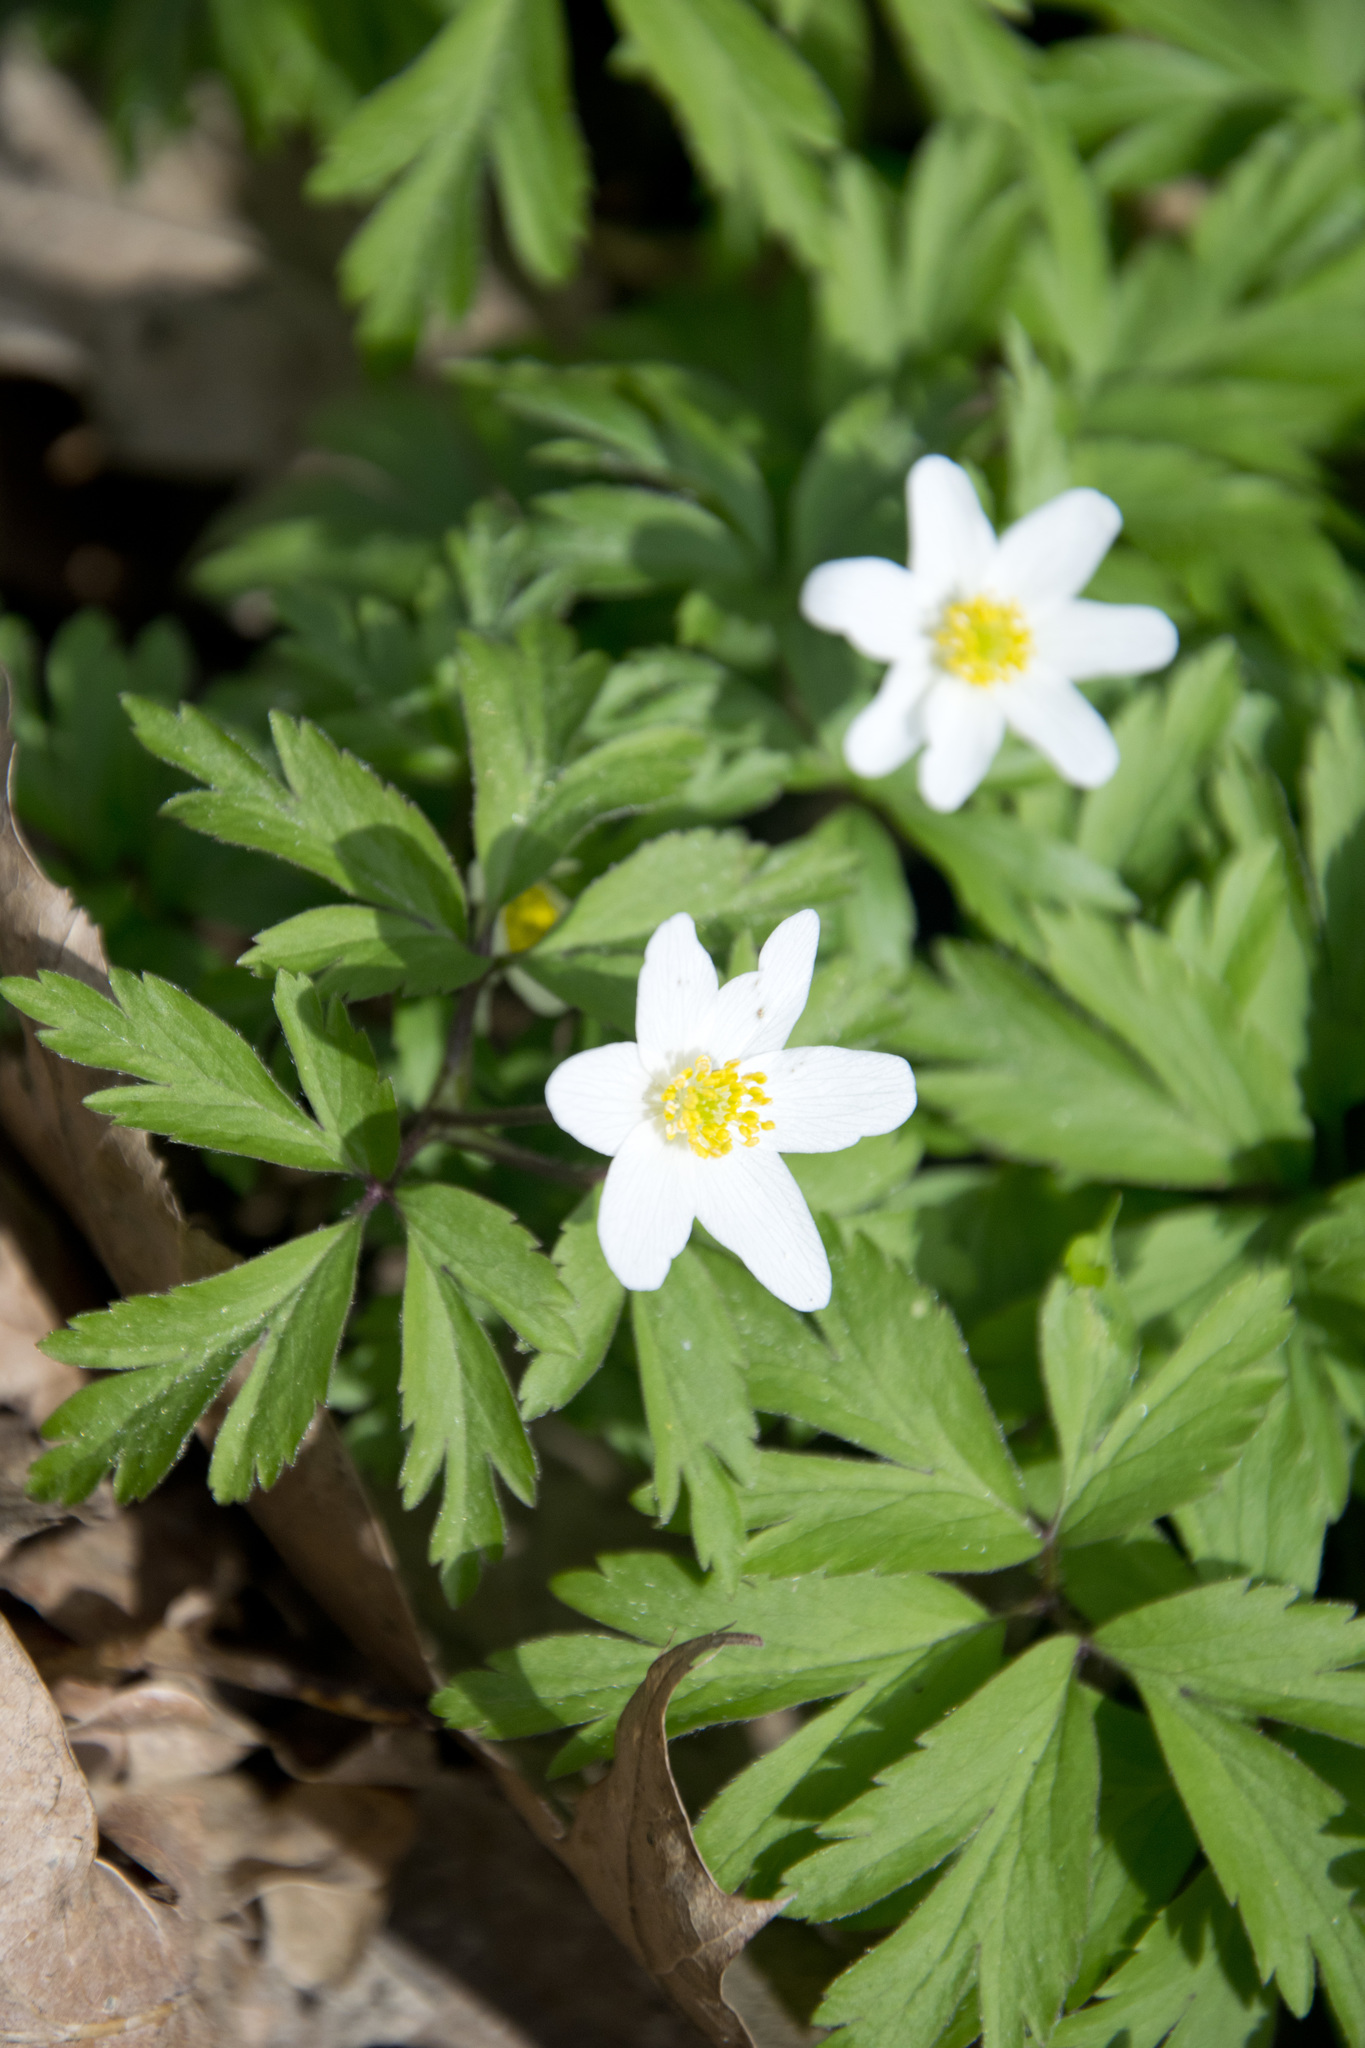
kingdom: Plantae
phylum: Tracheophyta
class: Magnoliopsida
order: Ranunculales
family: Ranunculaceae
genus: Anemone
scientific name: Anemone nemorosa
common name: Wood anemone
